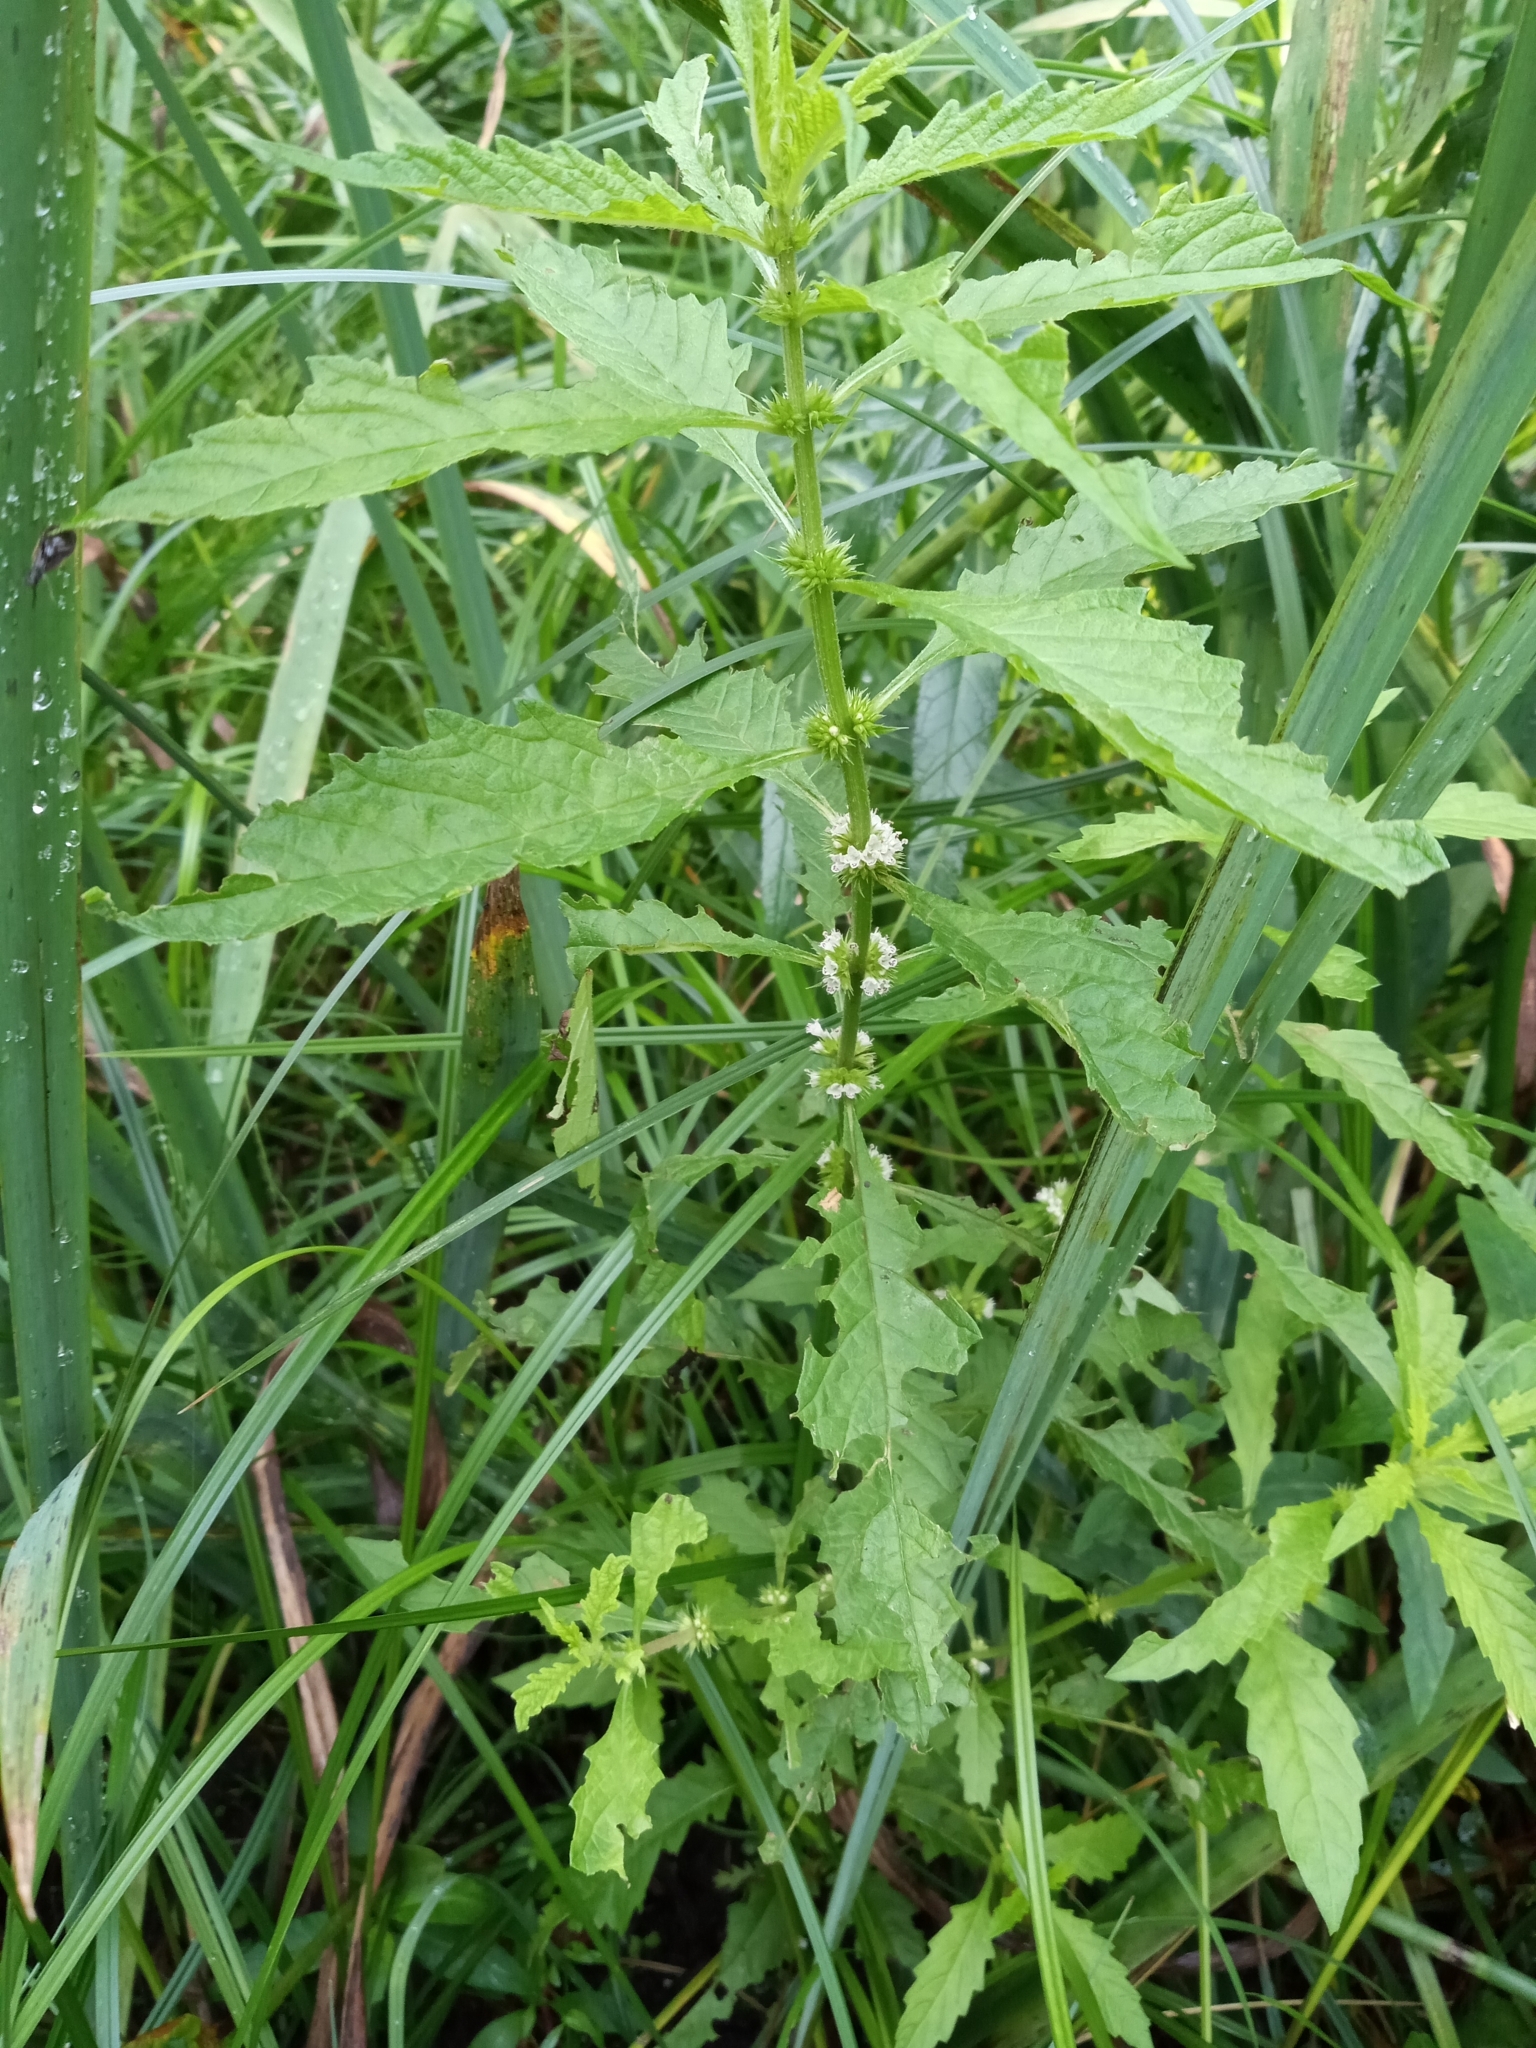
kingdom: Plantae
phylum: Tracheophyta
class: Magnoliopsida
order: Lamiales
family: Lamiaceae
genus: Lycopus
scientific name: Lycopus europaeus
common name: European bugleweed
